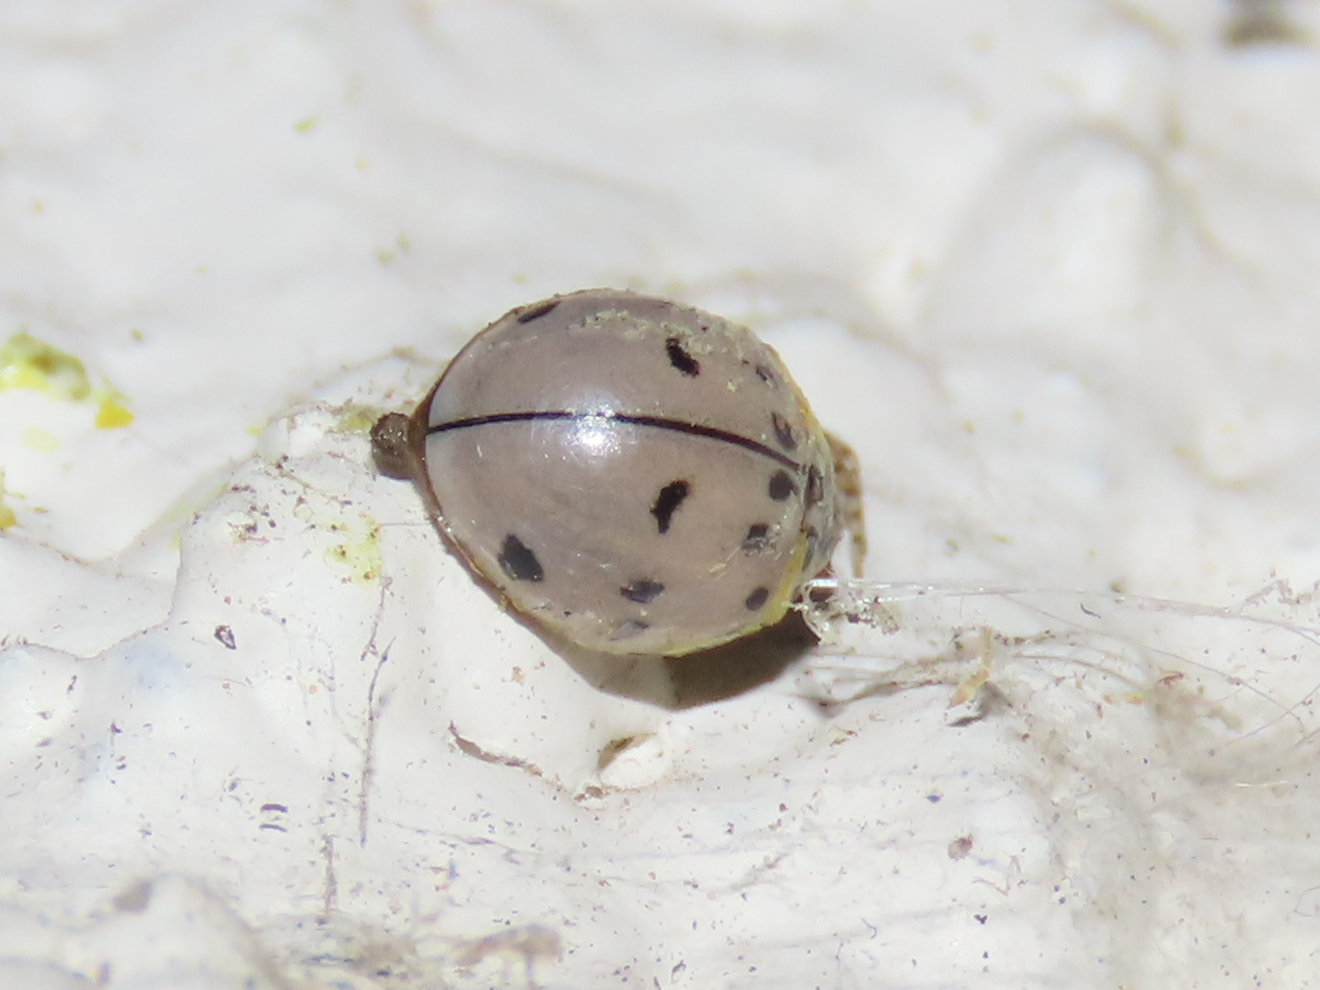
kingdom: Animalia
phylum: Arthropoda
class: Insecta
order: Coleoptera
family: Coccinellidae
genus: Olla
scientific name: Olla v-nigrum
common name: Ashy gray lady beetle
